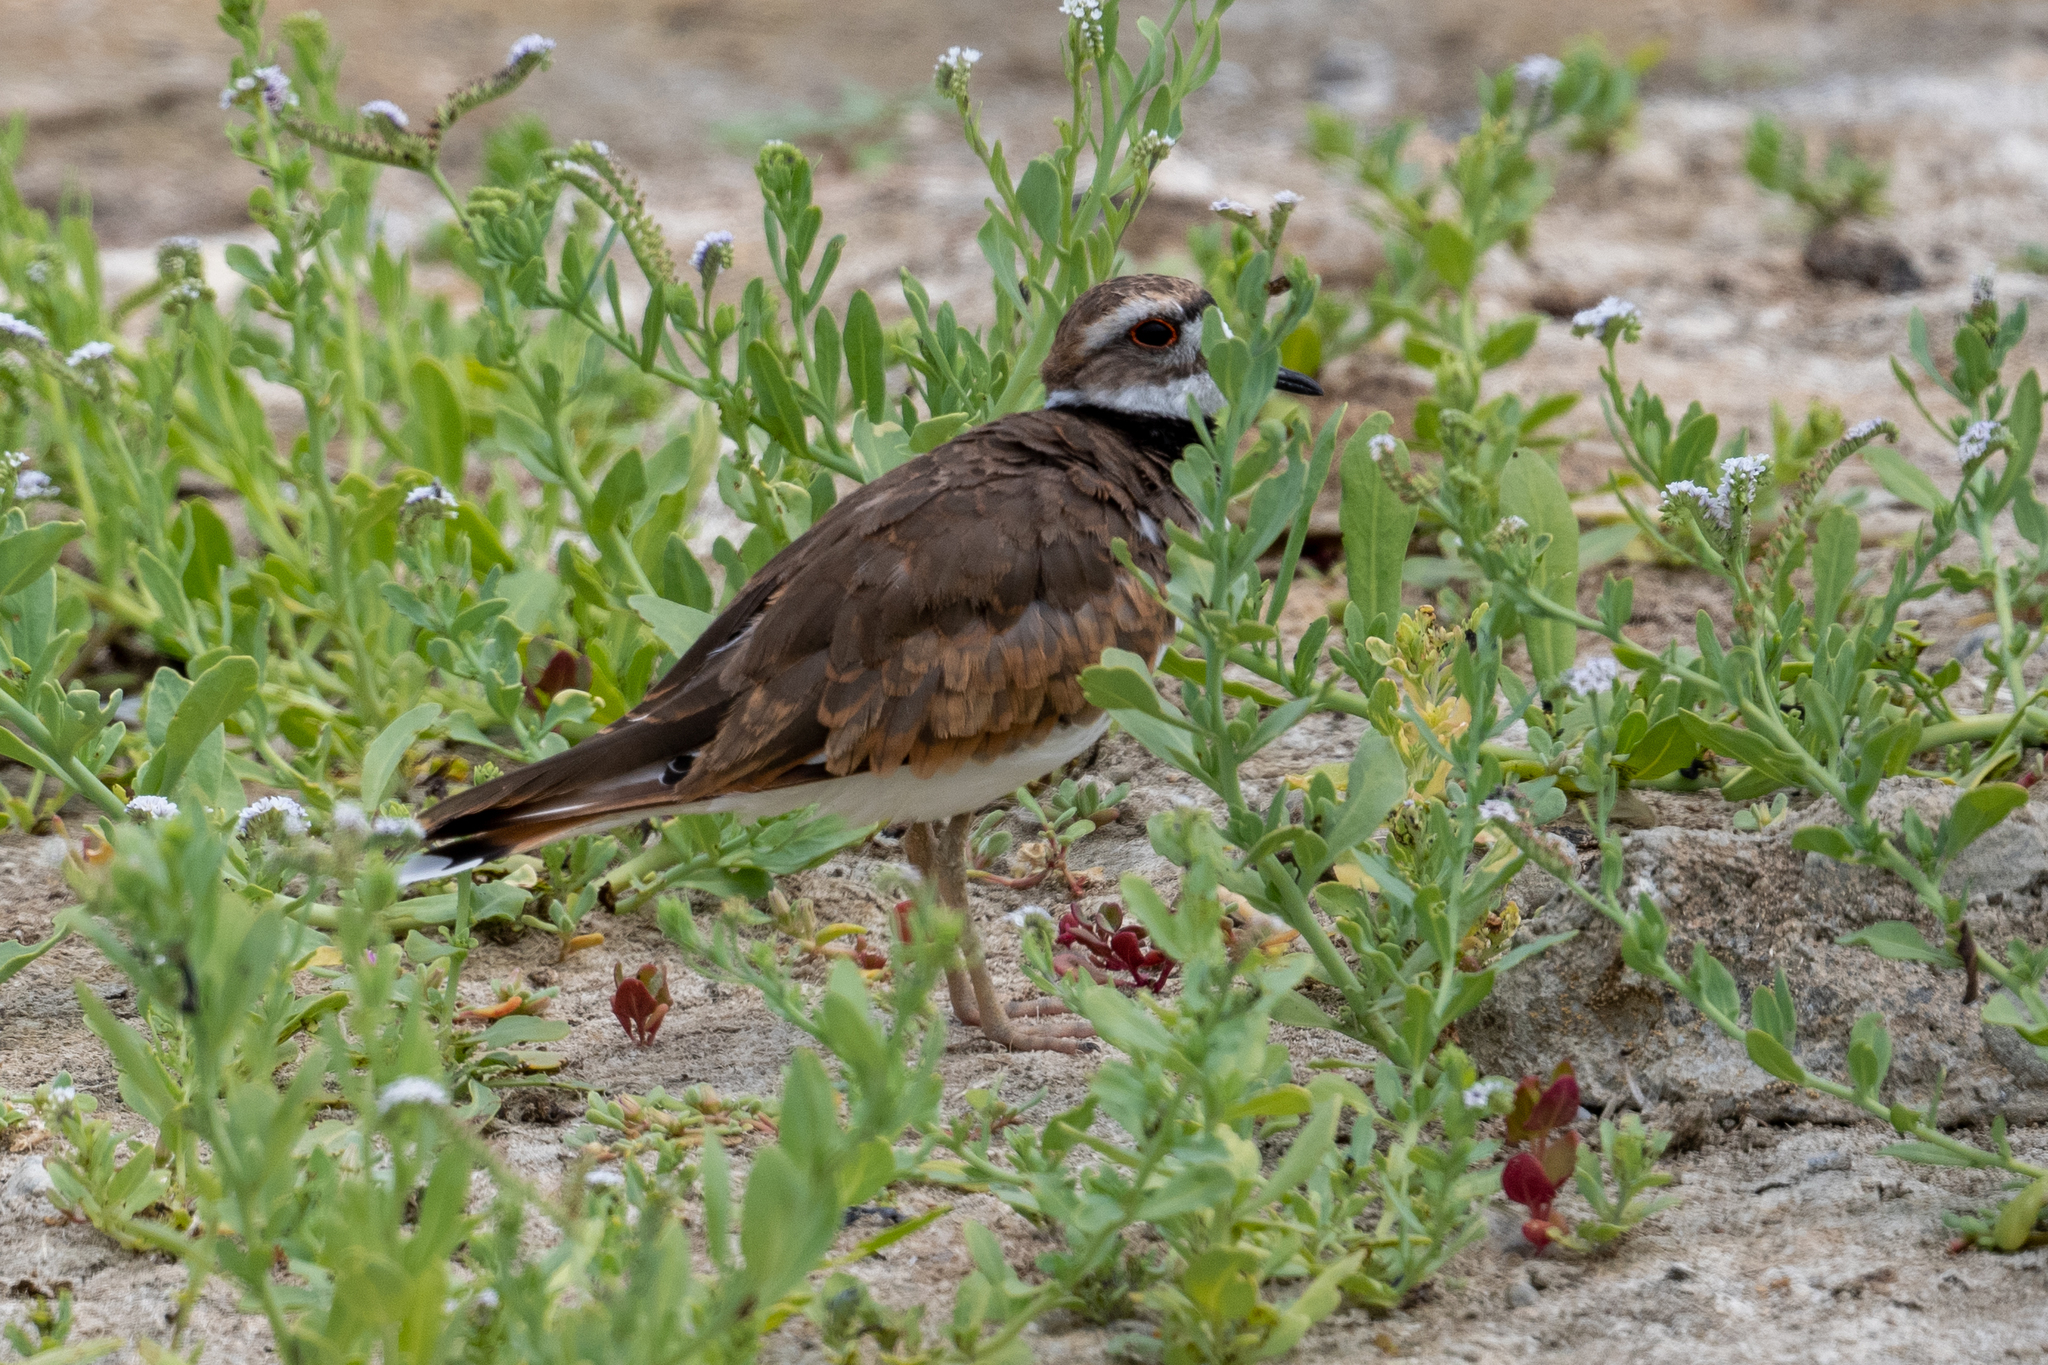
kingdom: Animalia
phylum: Chordata
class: Aves
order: Charadriiformes
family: Charadriidae
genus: Charadrius
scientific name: Charadrius vociferus
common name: Killdeer
